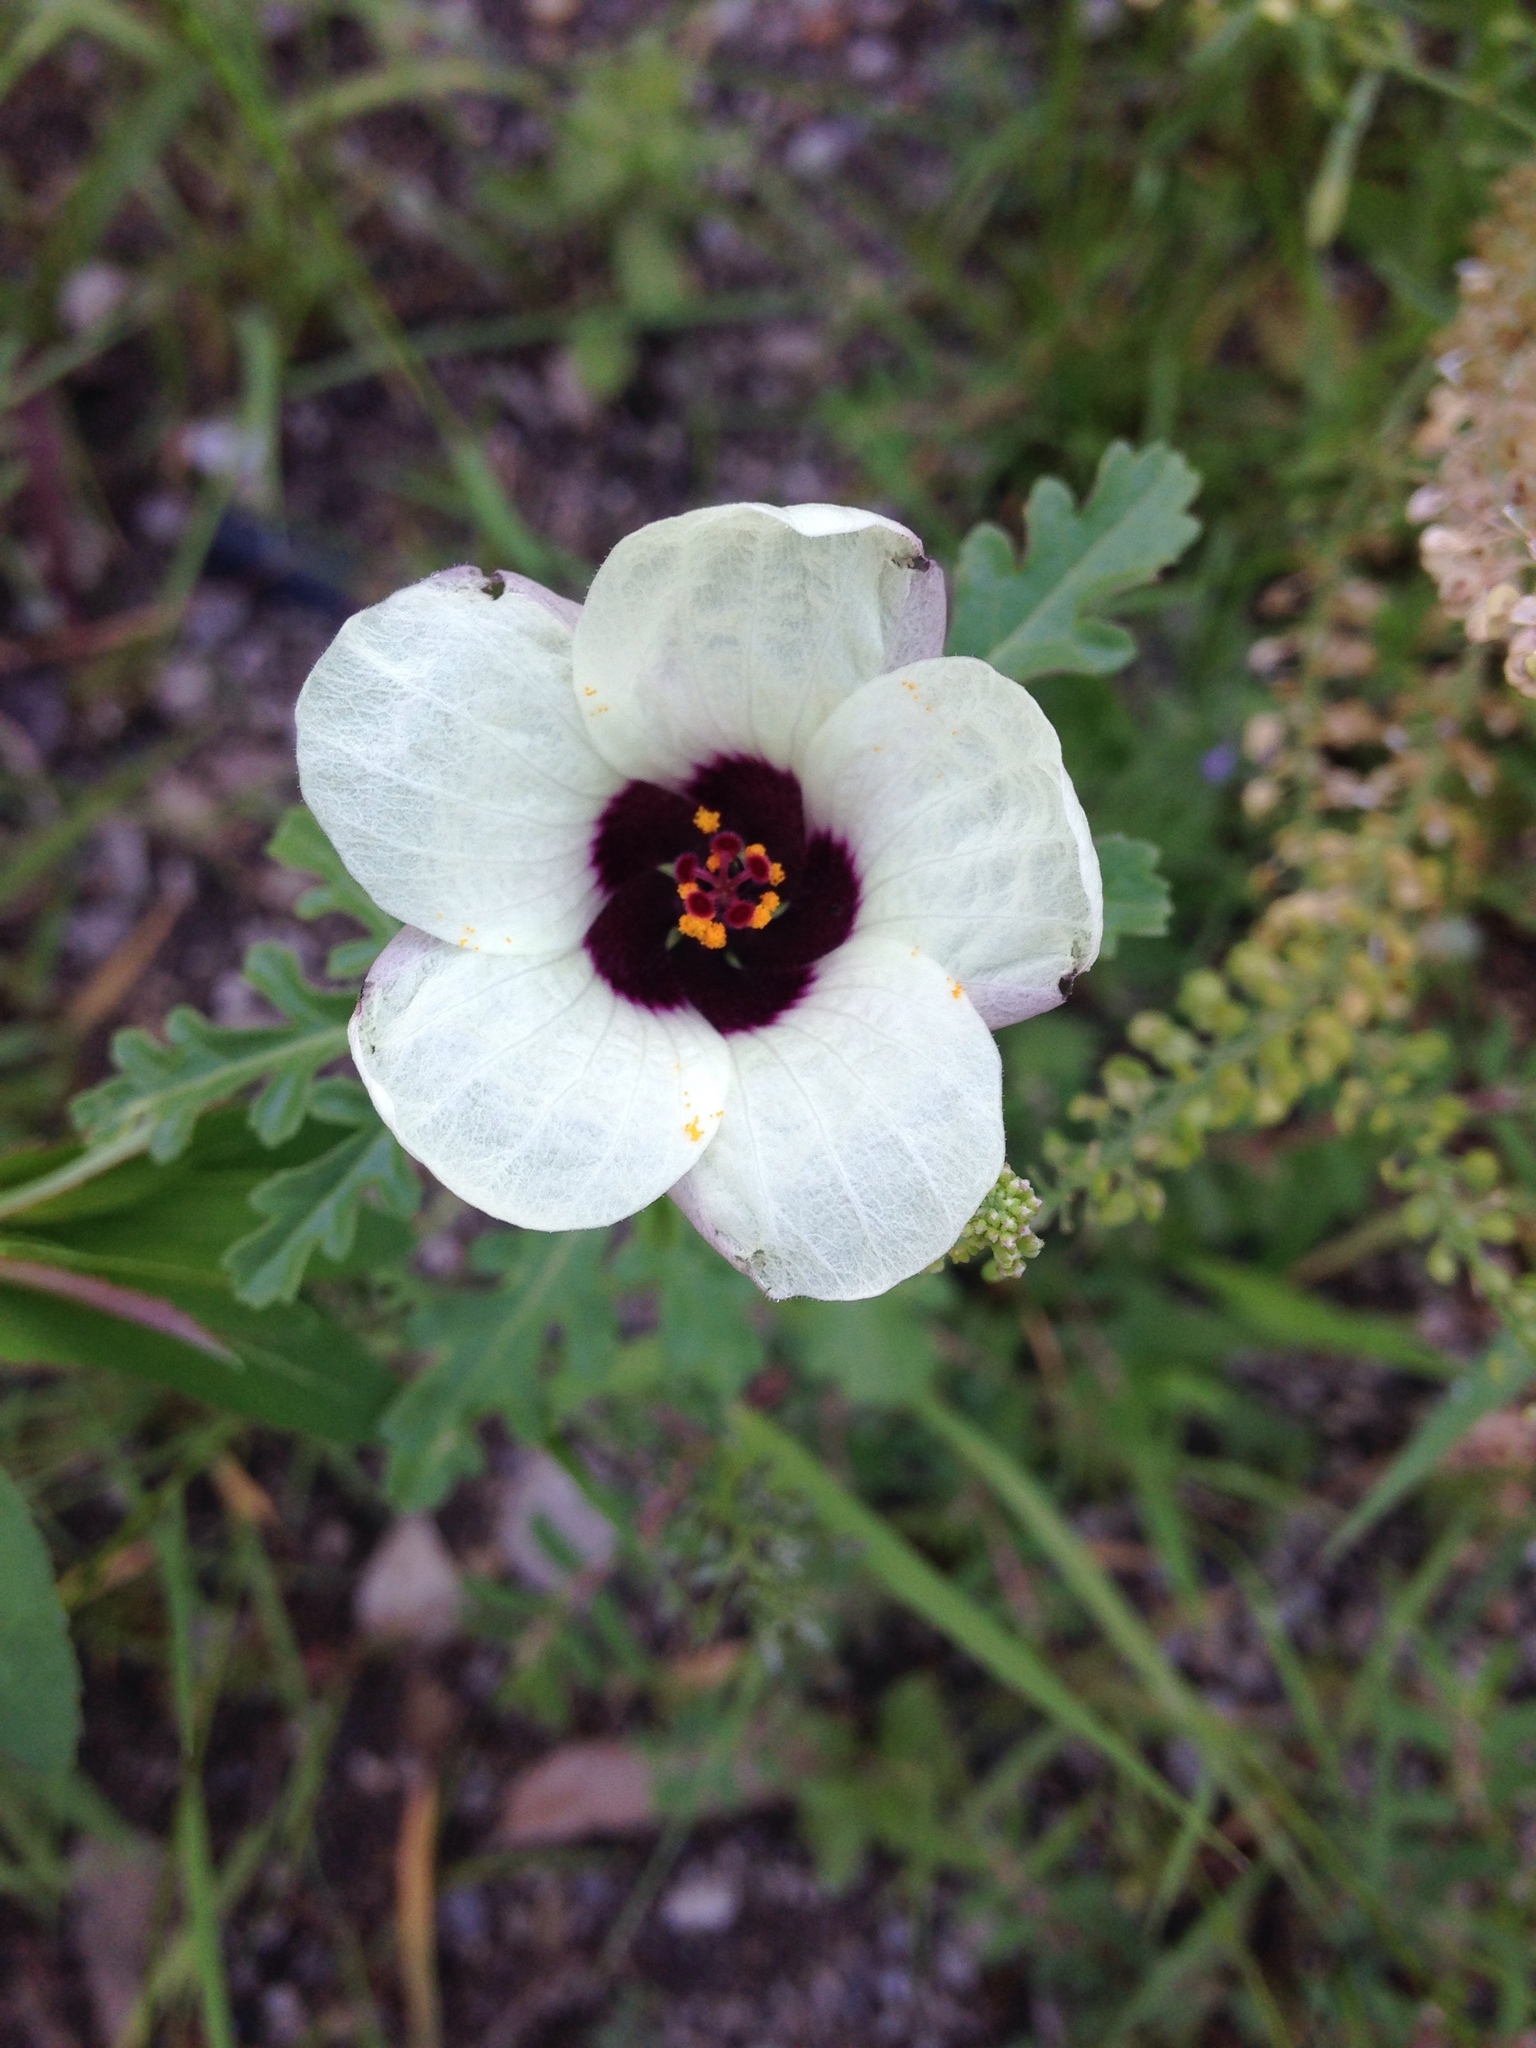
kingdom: Plantae
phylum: Tracheophyta
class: Magnoliopsida
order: Malvales
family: Malvaceae
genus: Hibiscus
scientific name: Hibiscus trionum
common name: Bladder ketmia
